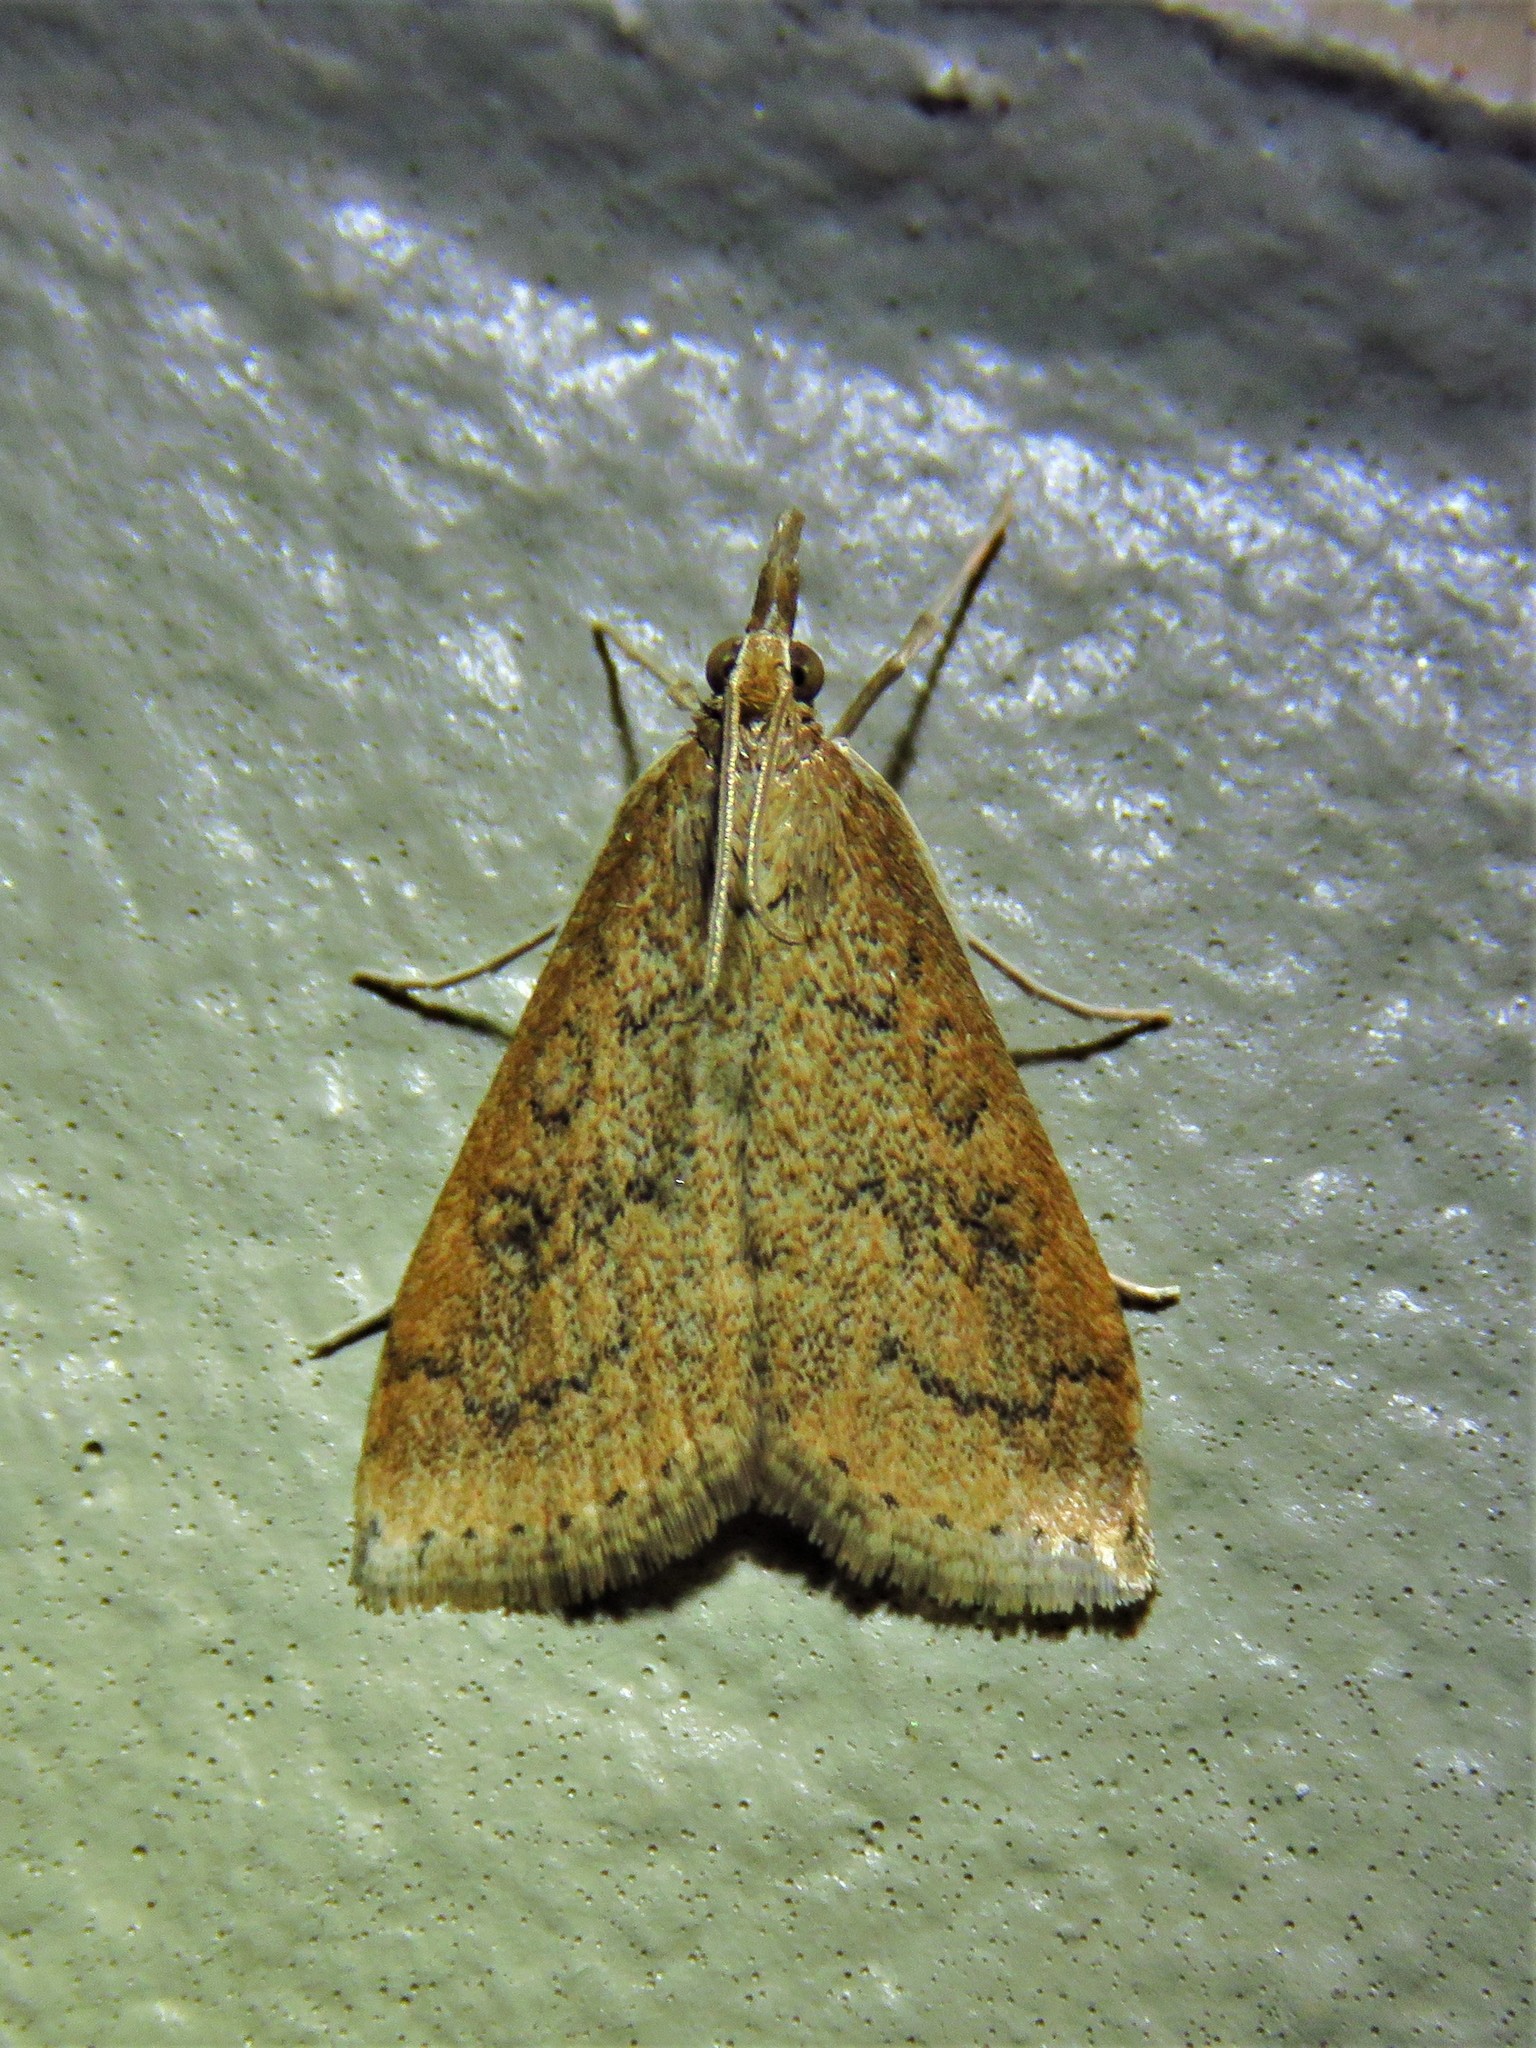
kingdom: Animalia
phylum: Arthropoda
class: Insecta
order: Lepidoptera
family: Crambidae
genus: Udea
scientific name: Udea rubigalis
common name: Celery leaftier moth
